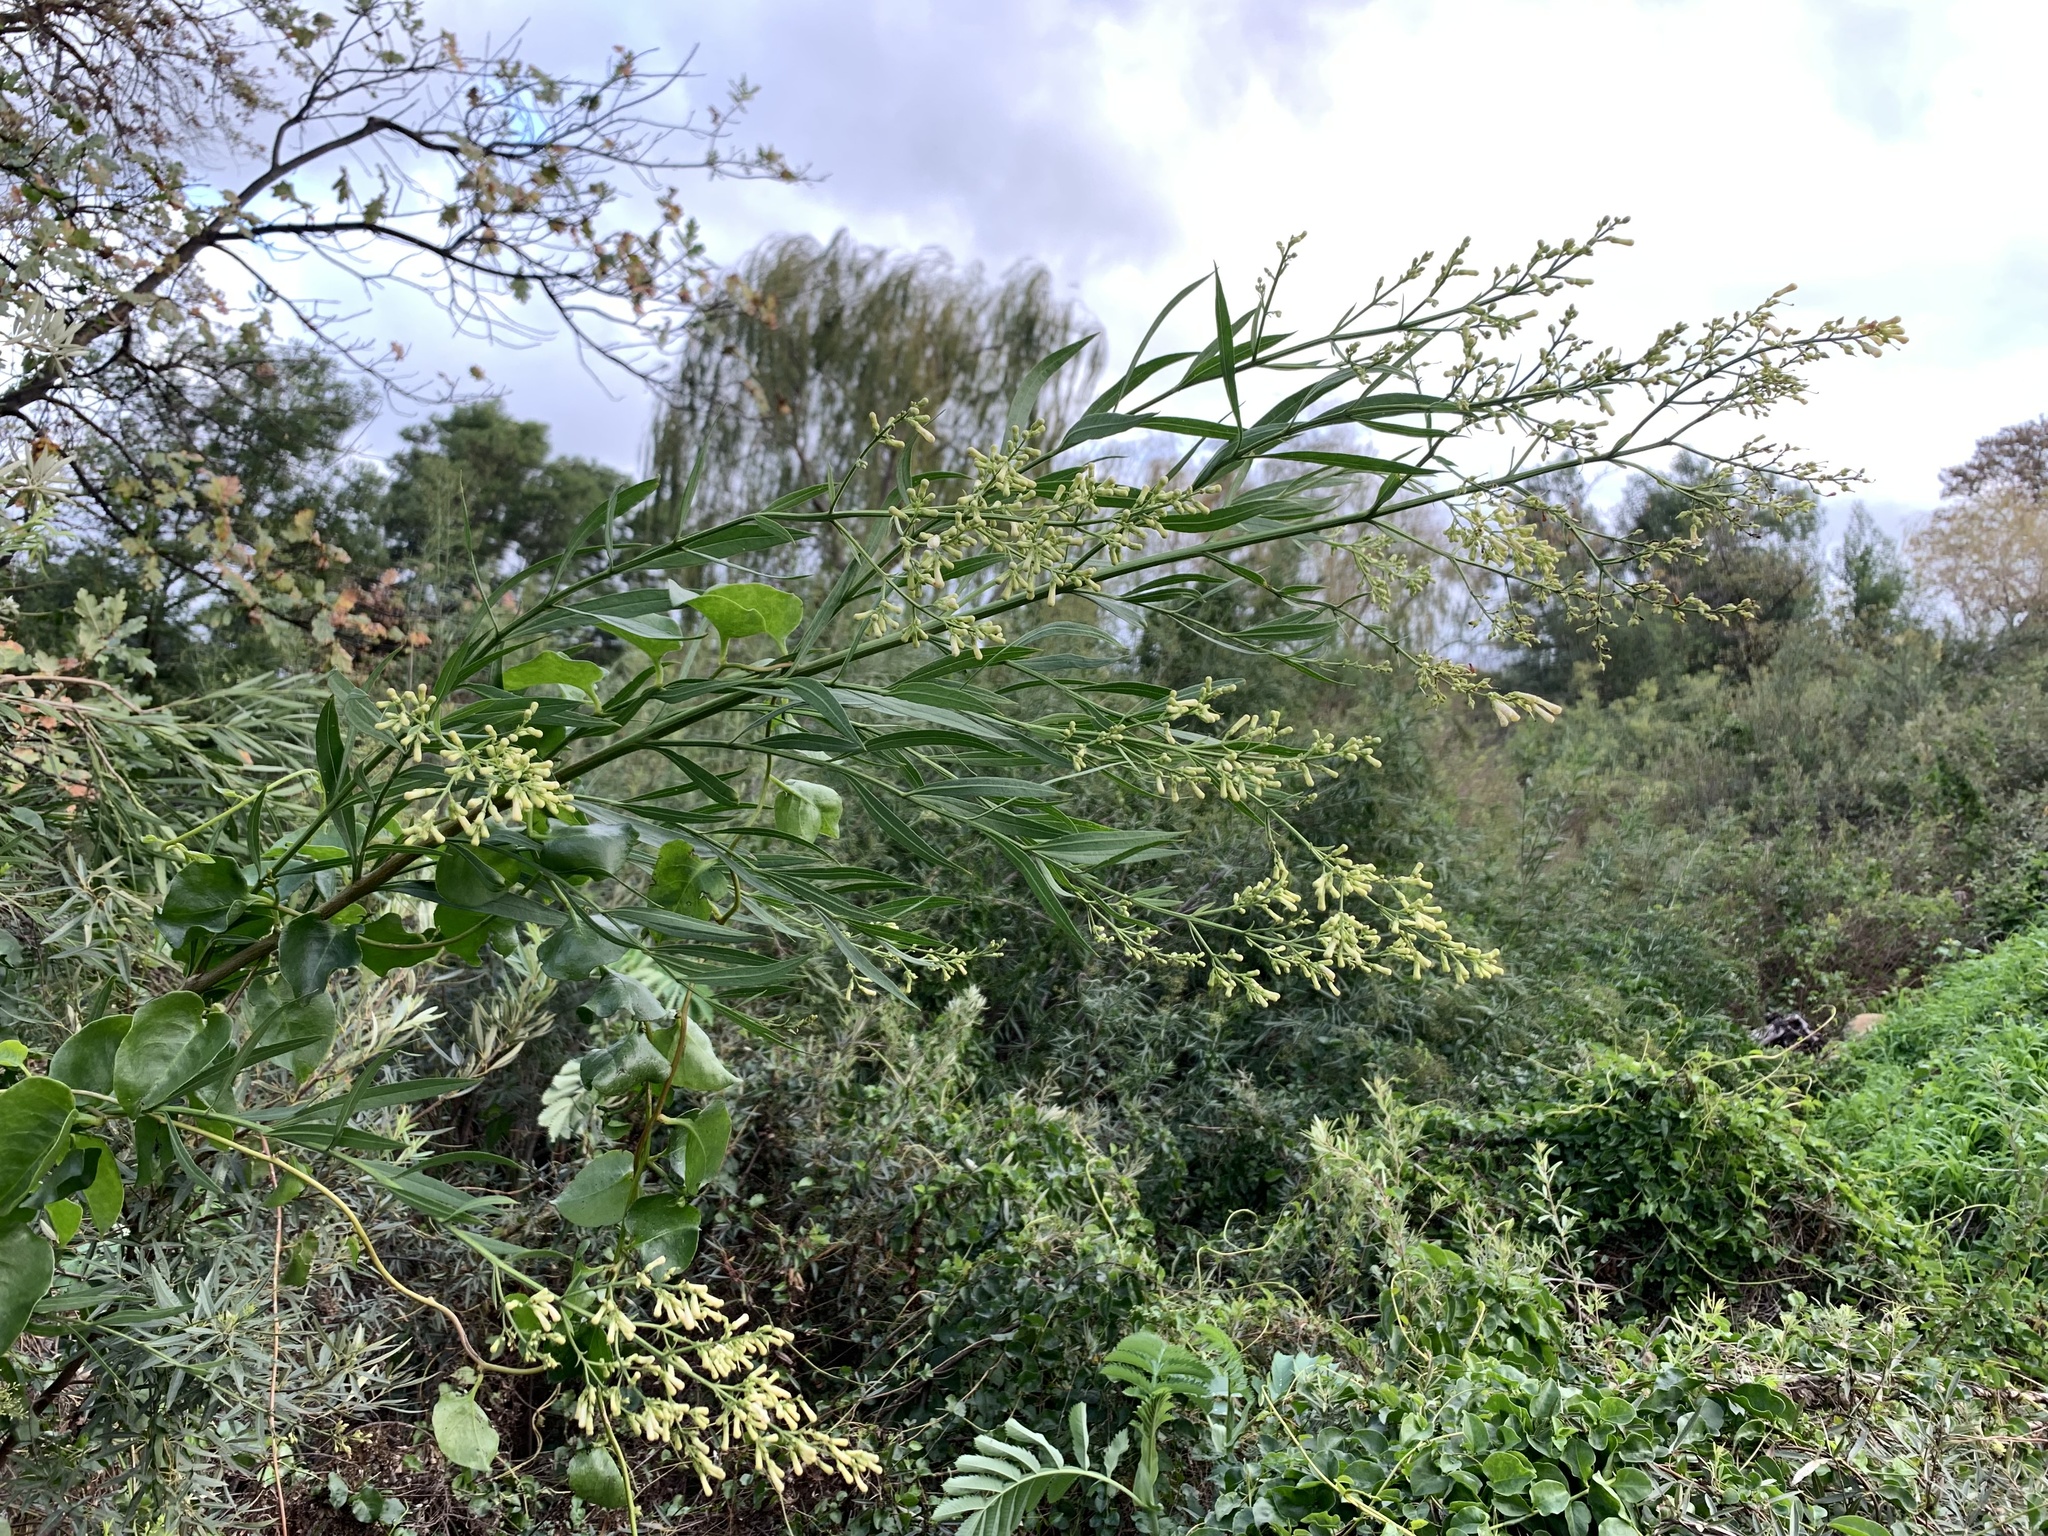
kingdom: Plantae
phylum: Tracheophyta
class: Magnoliopsida
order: Lamiales
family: Scrophulariaceae
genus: Freylinia
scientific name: Freylinia lanceolata
